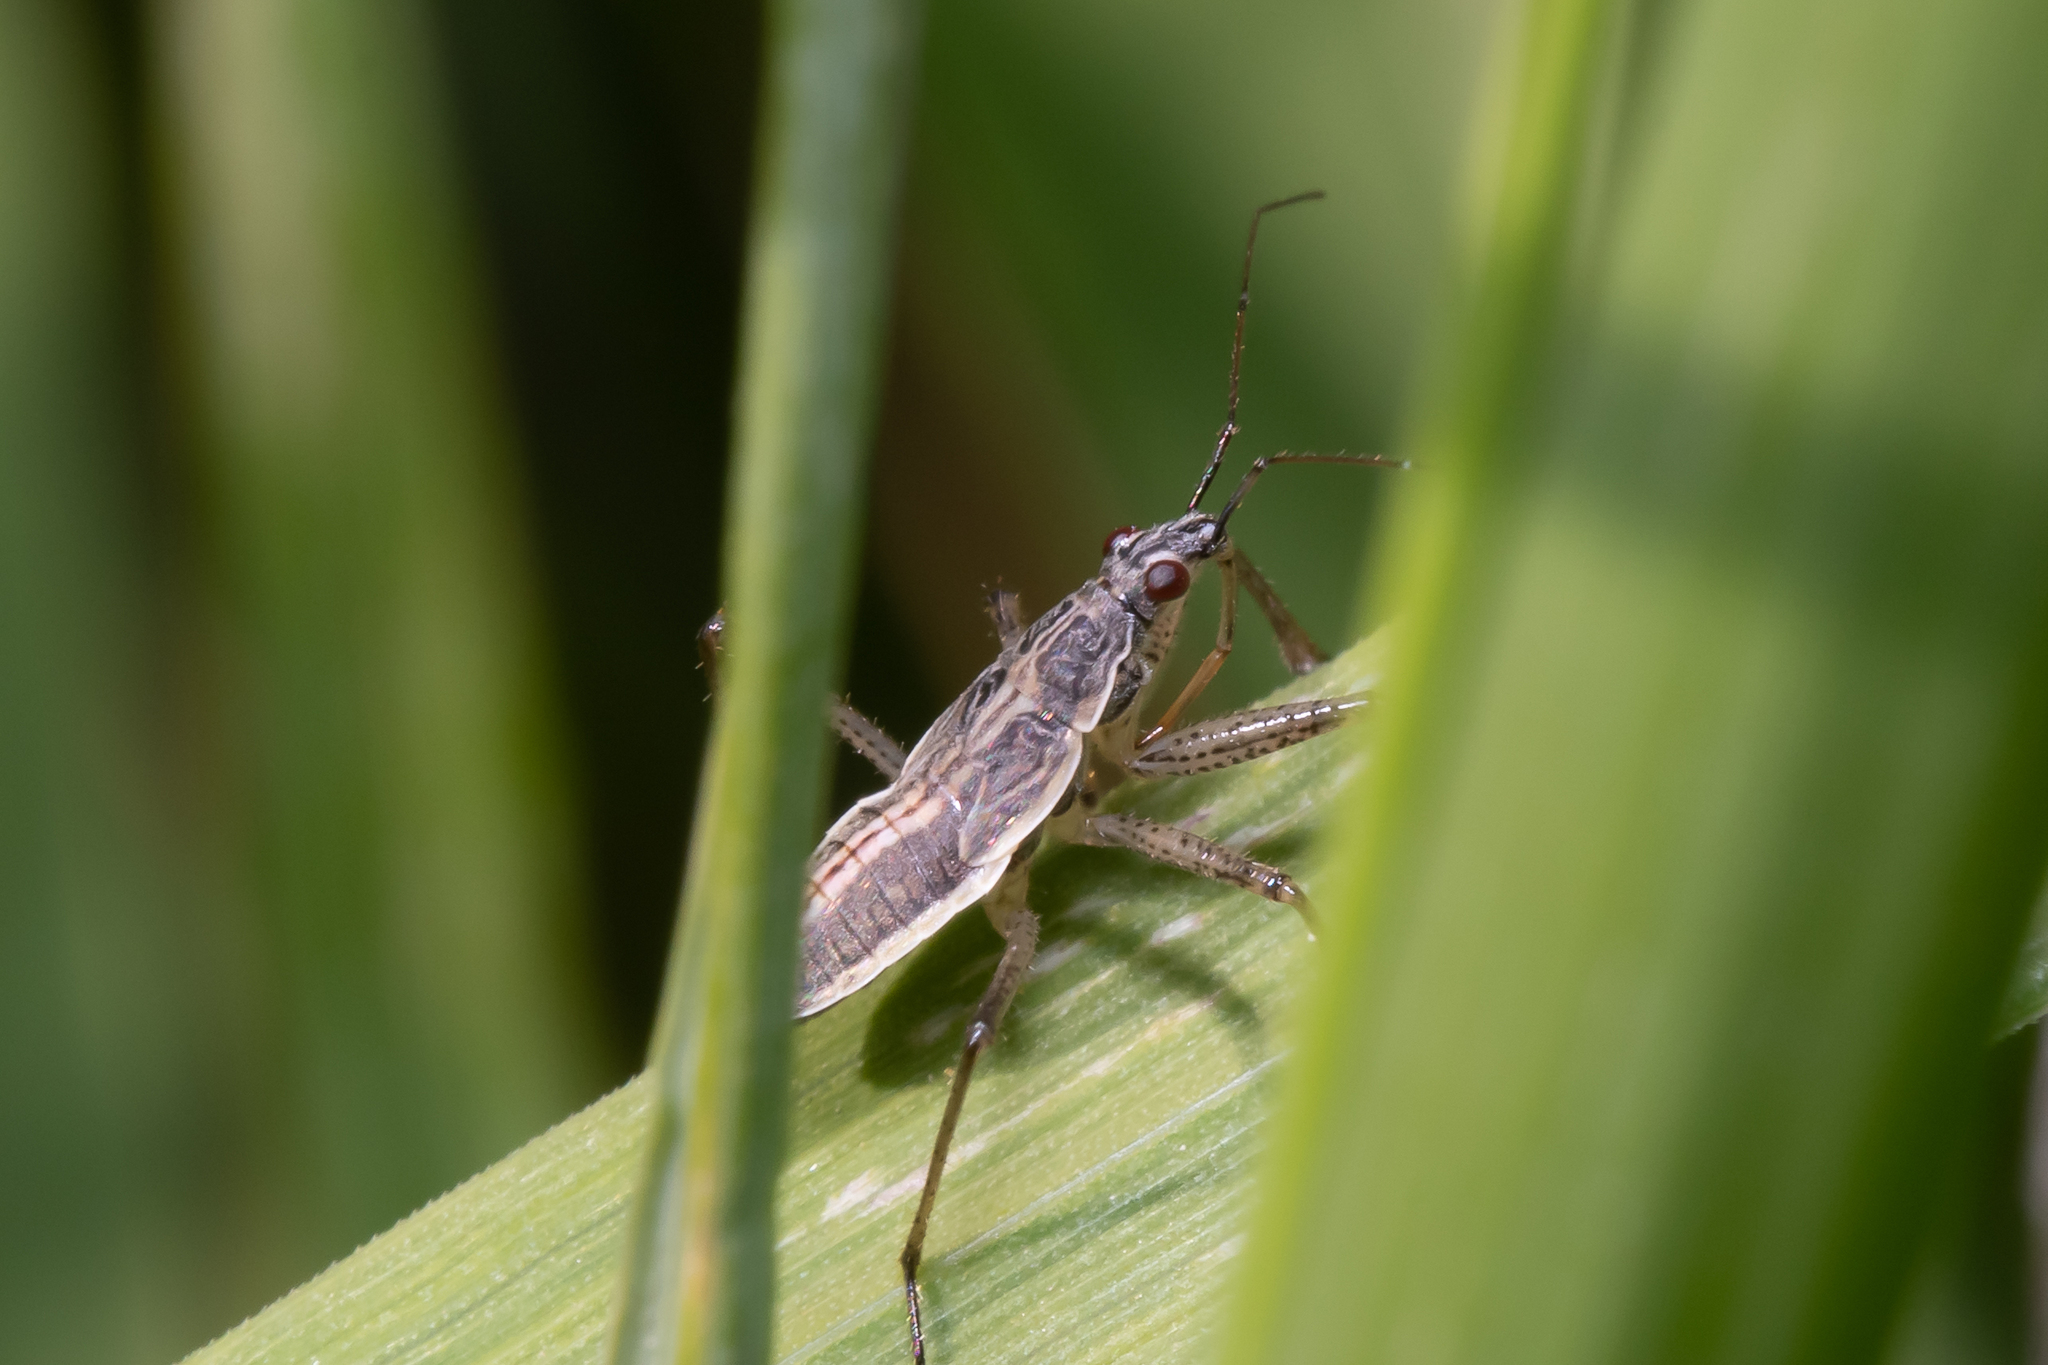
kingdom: Animalia
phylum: Arthropoda
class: Insecta
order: Hemiptera
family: Nabidae
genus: Nabis
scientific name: Nabis flavomarginatus
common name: Broad damselbug
